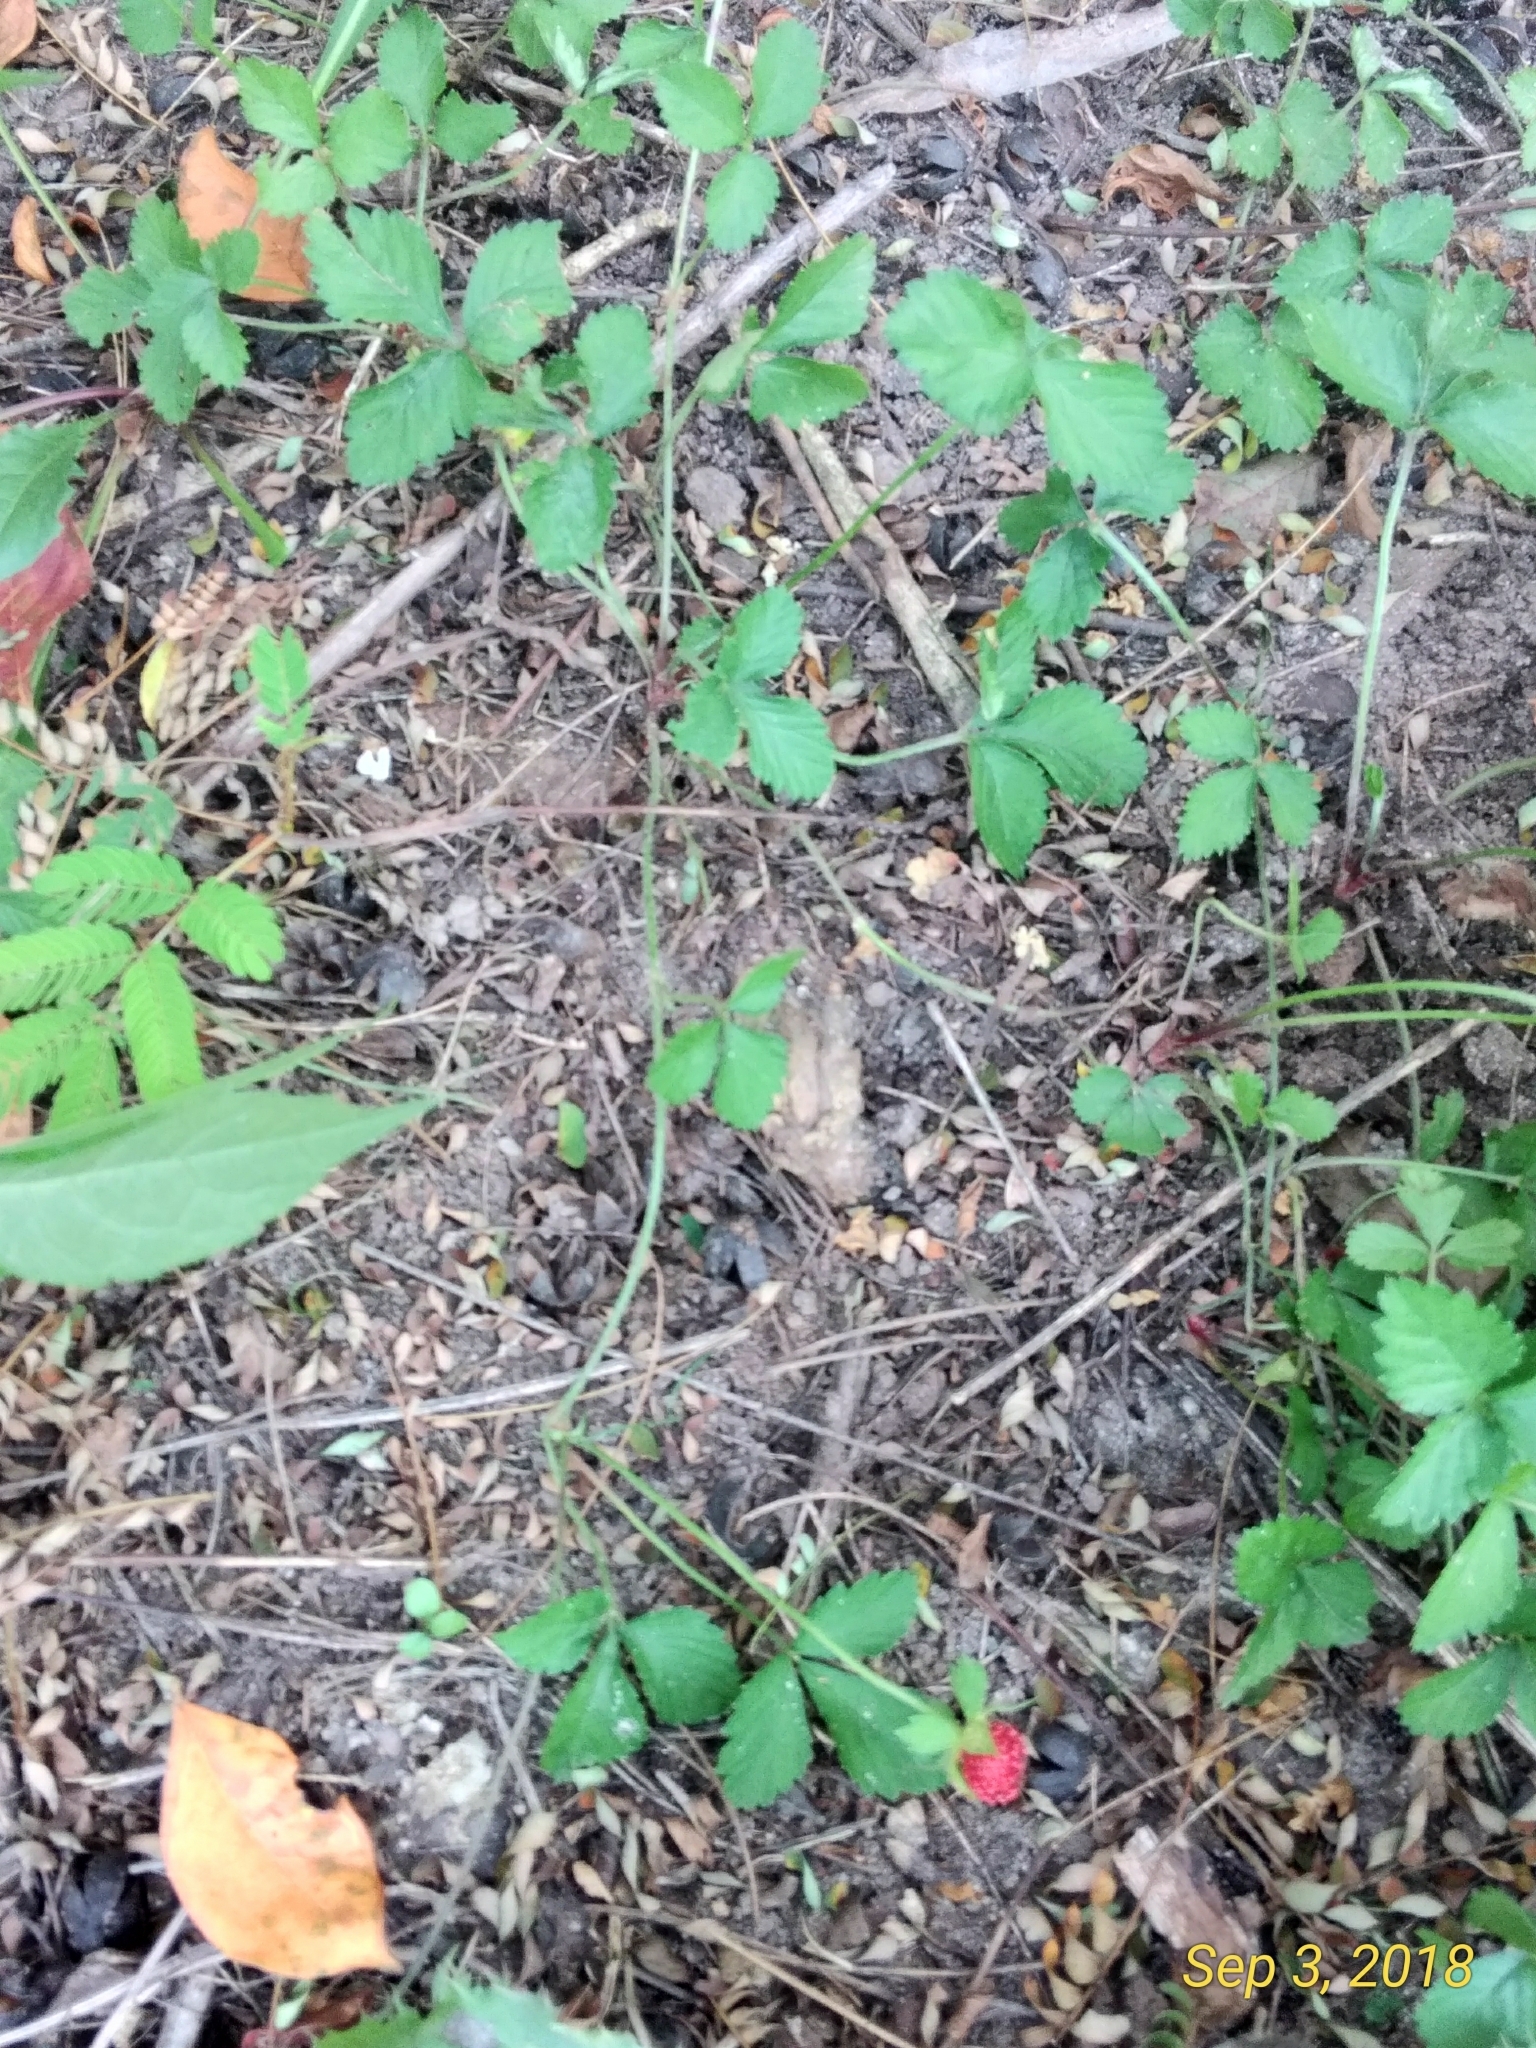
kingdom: Plantae
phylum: Tracheophyta
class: Magnoliopsida
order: Rosales
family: Rosaceae
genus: Potentilla
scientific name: Potentilla indica
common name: Yellow-flowered strawberry
